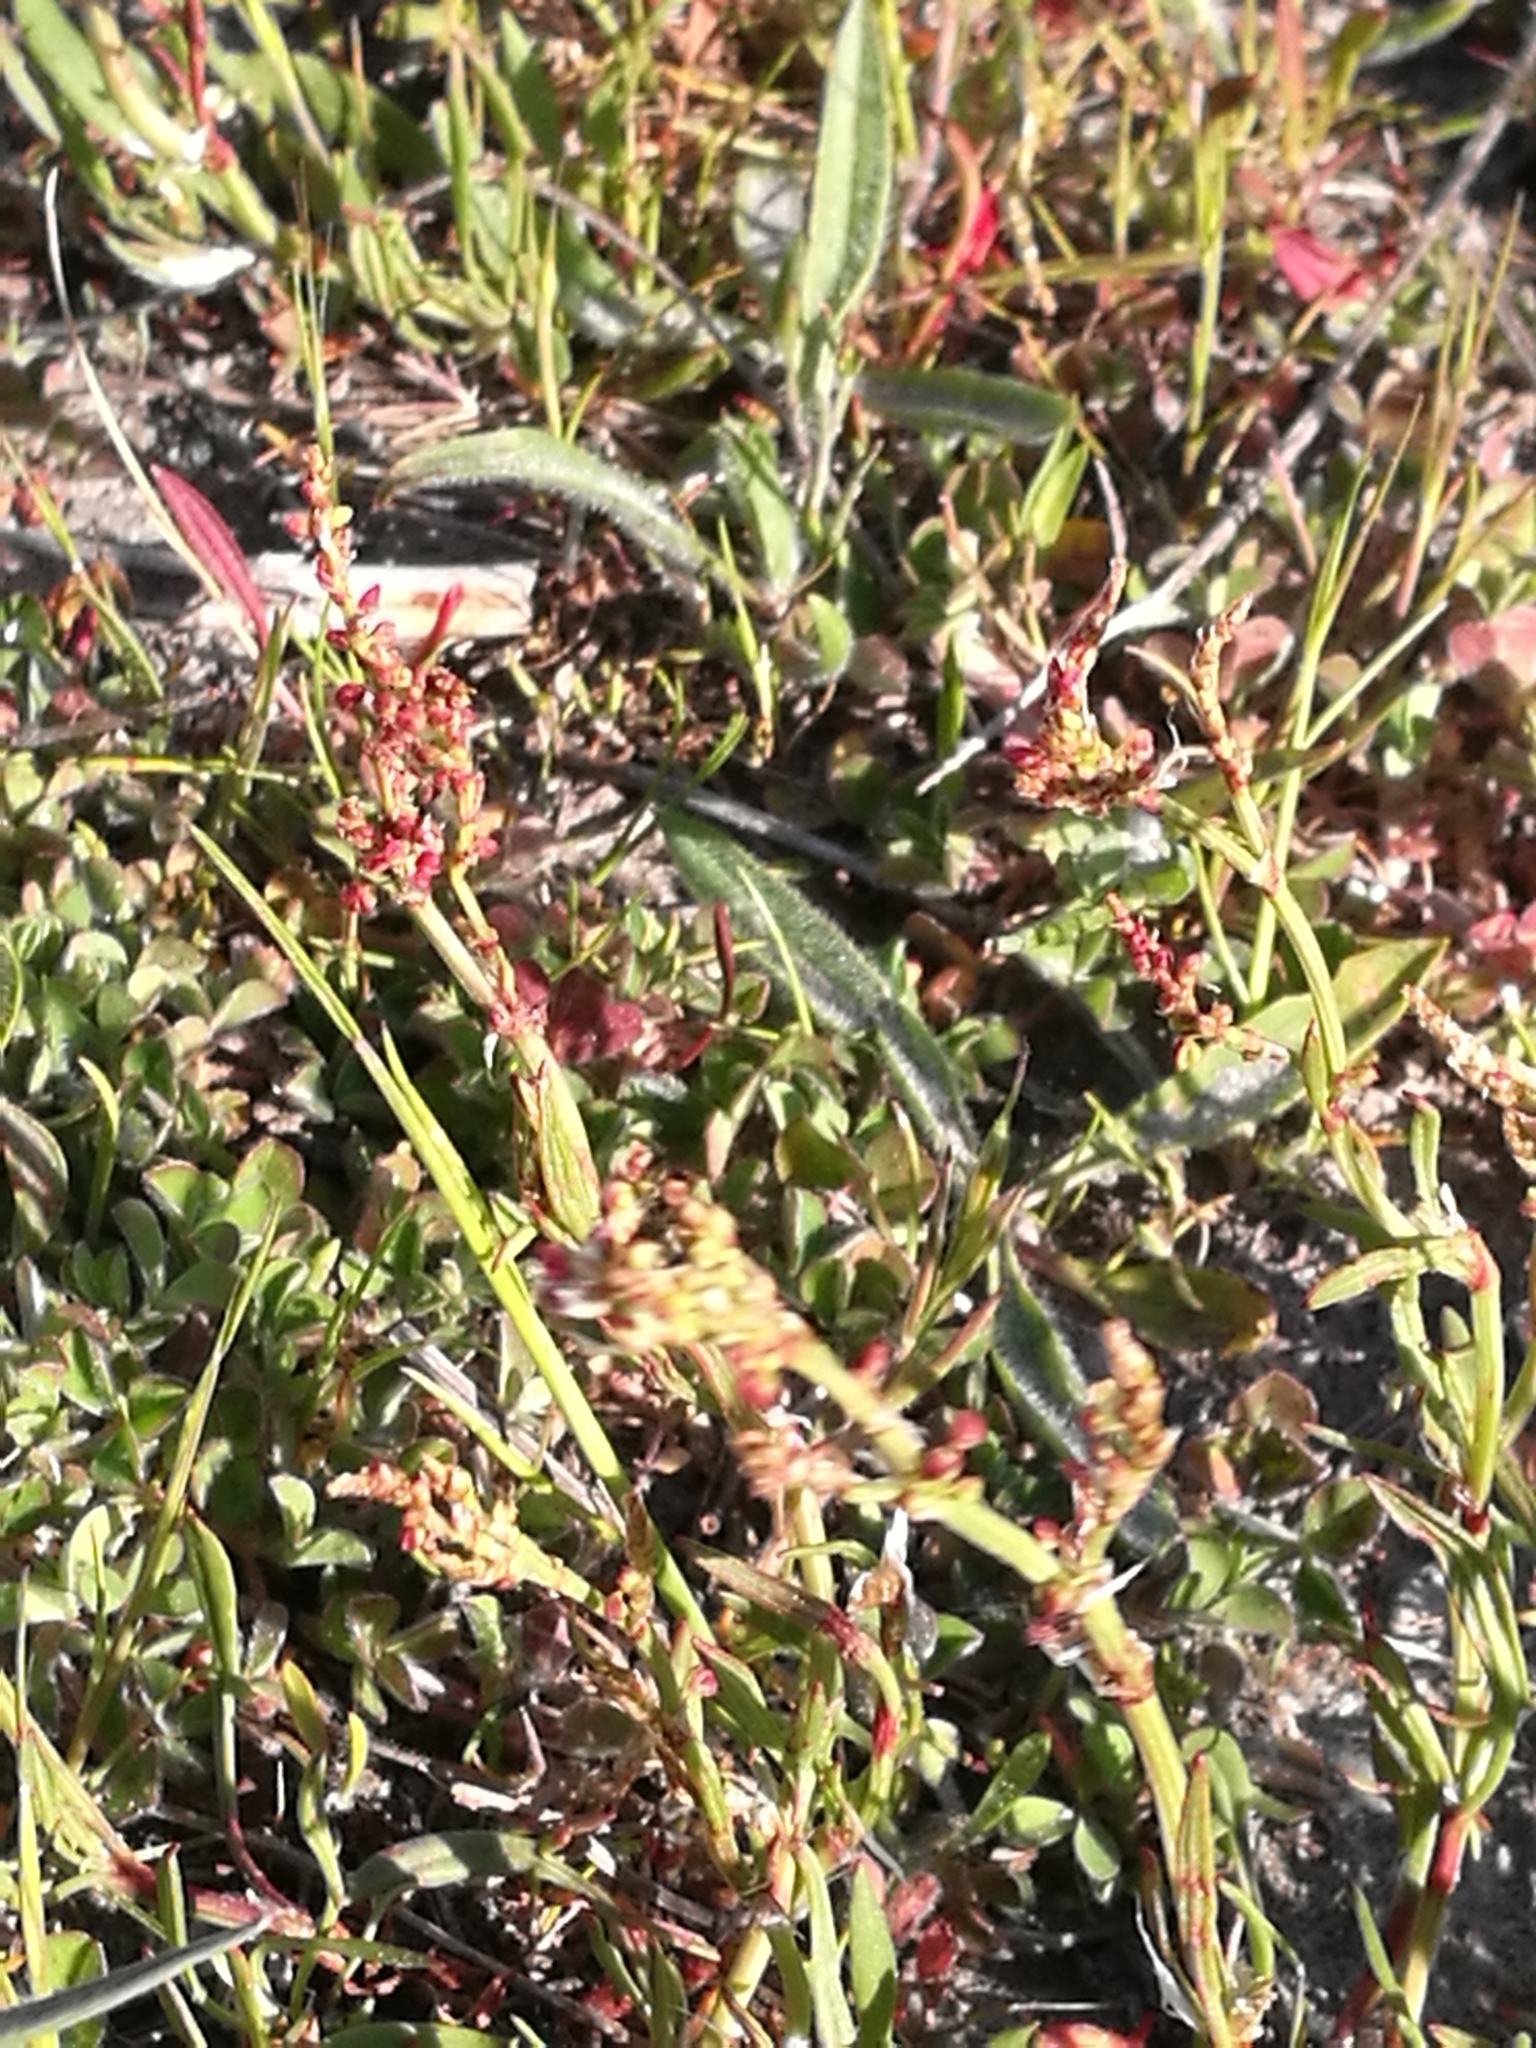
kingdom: Plantae
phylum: Tracheophyta
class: Magnoliopsida
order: Caryophyllales
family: Polygonaceae
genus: Rumex
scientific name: Rumex acetosella
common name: Common sheep sorrel
